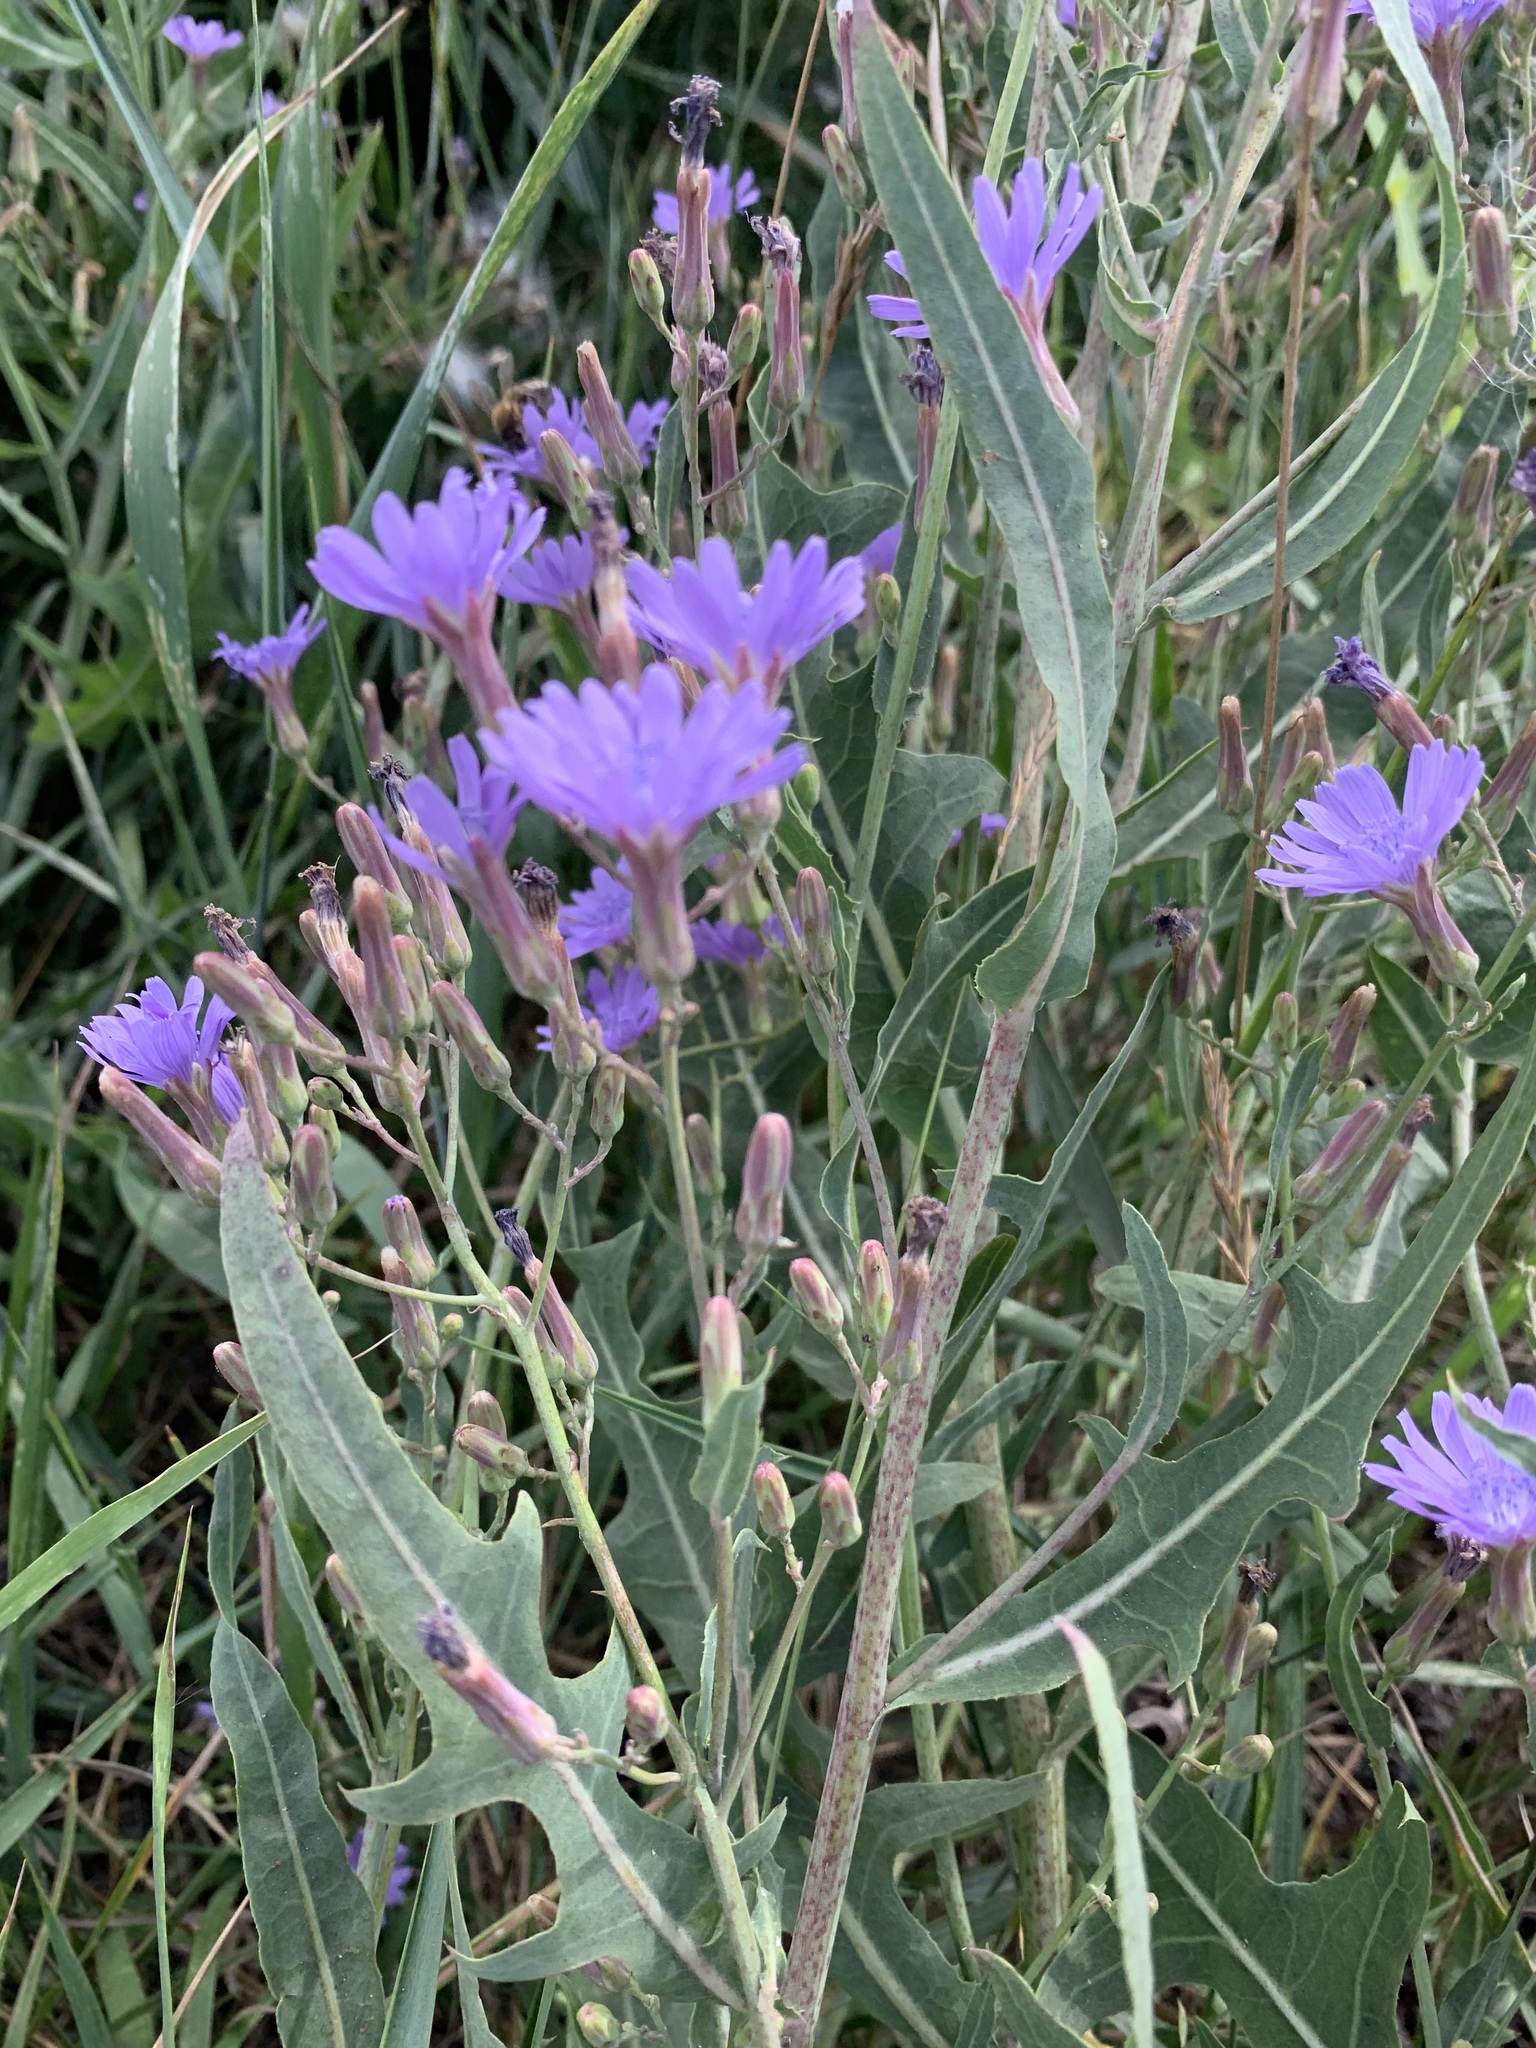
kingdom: Plantae
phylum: Tracheophyta
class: Magnoliopsida
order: Asterales
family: Asteraceae
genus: Lactuca
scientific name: Lactuca tatarica
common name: Blue lettuce
